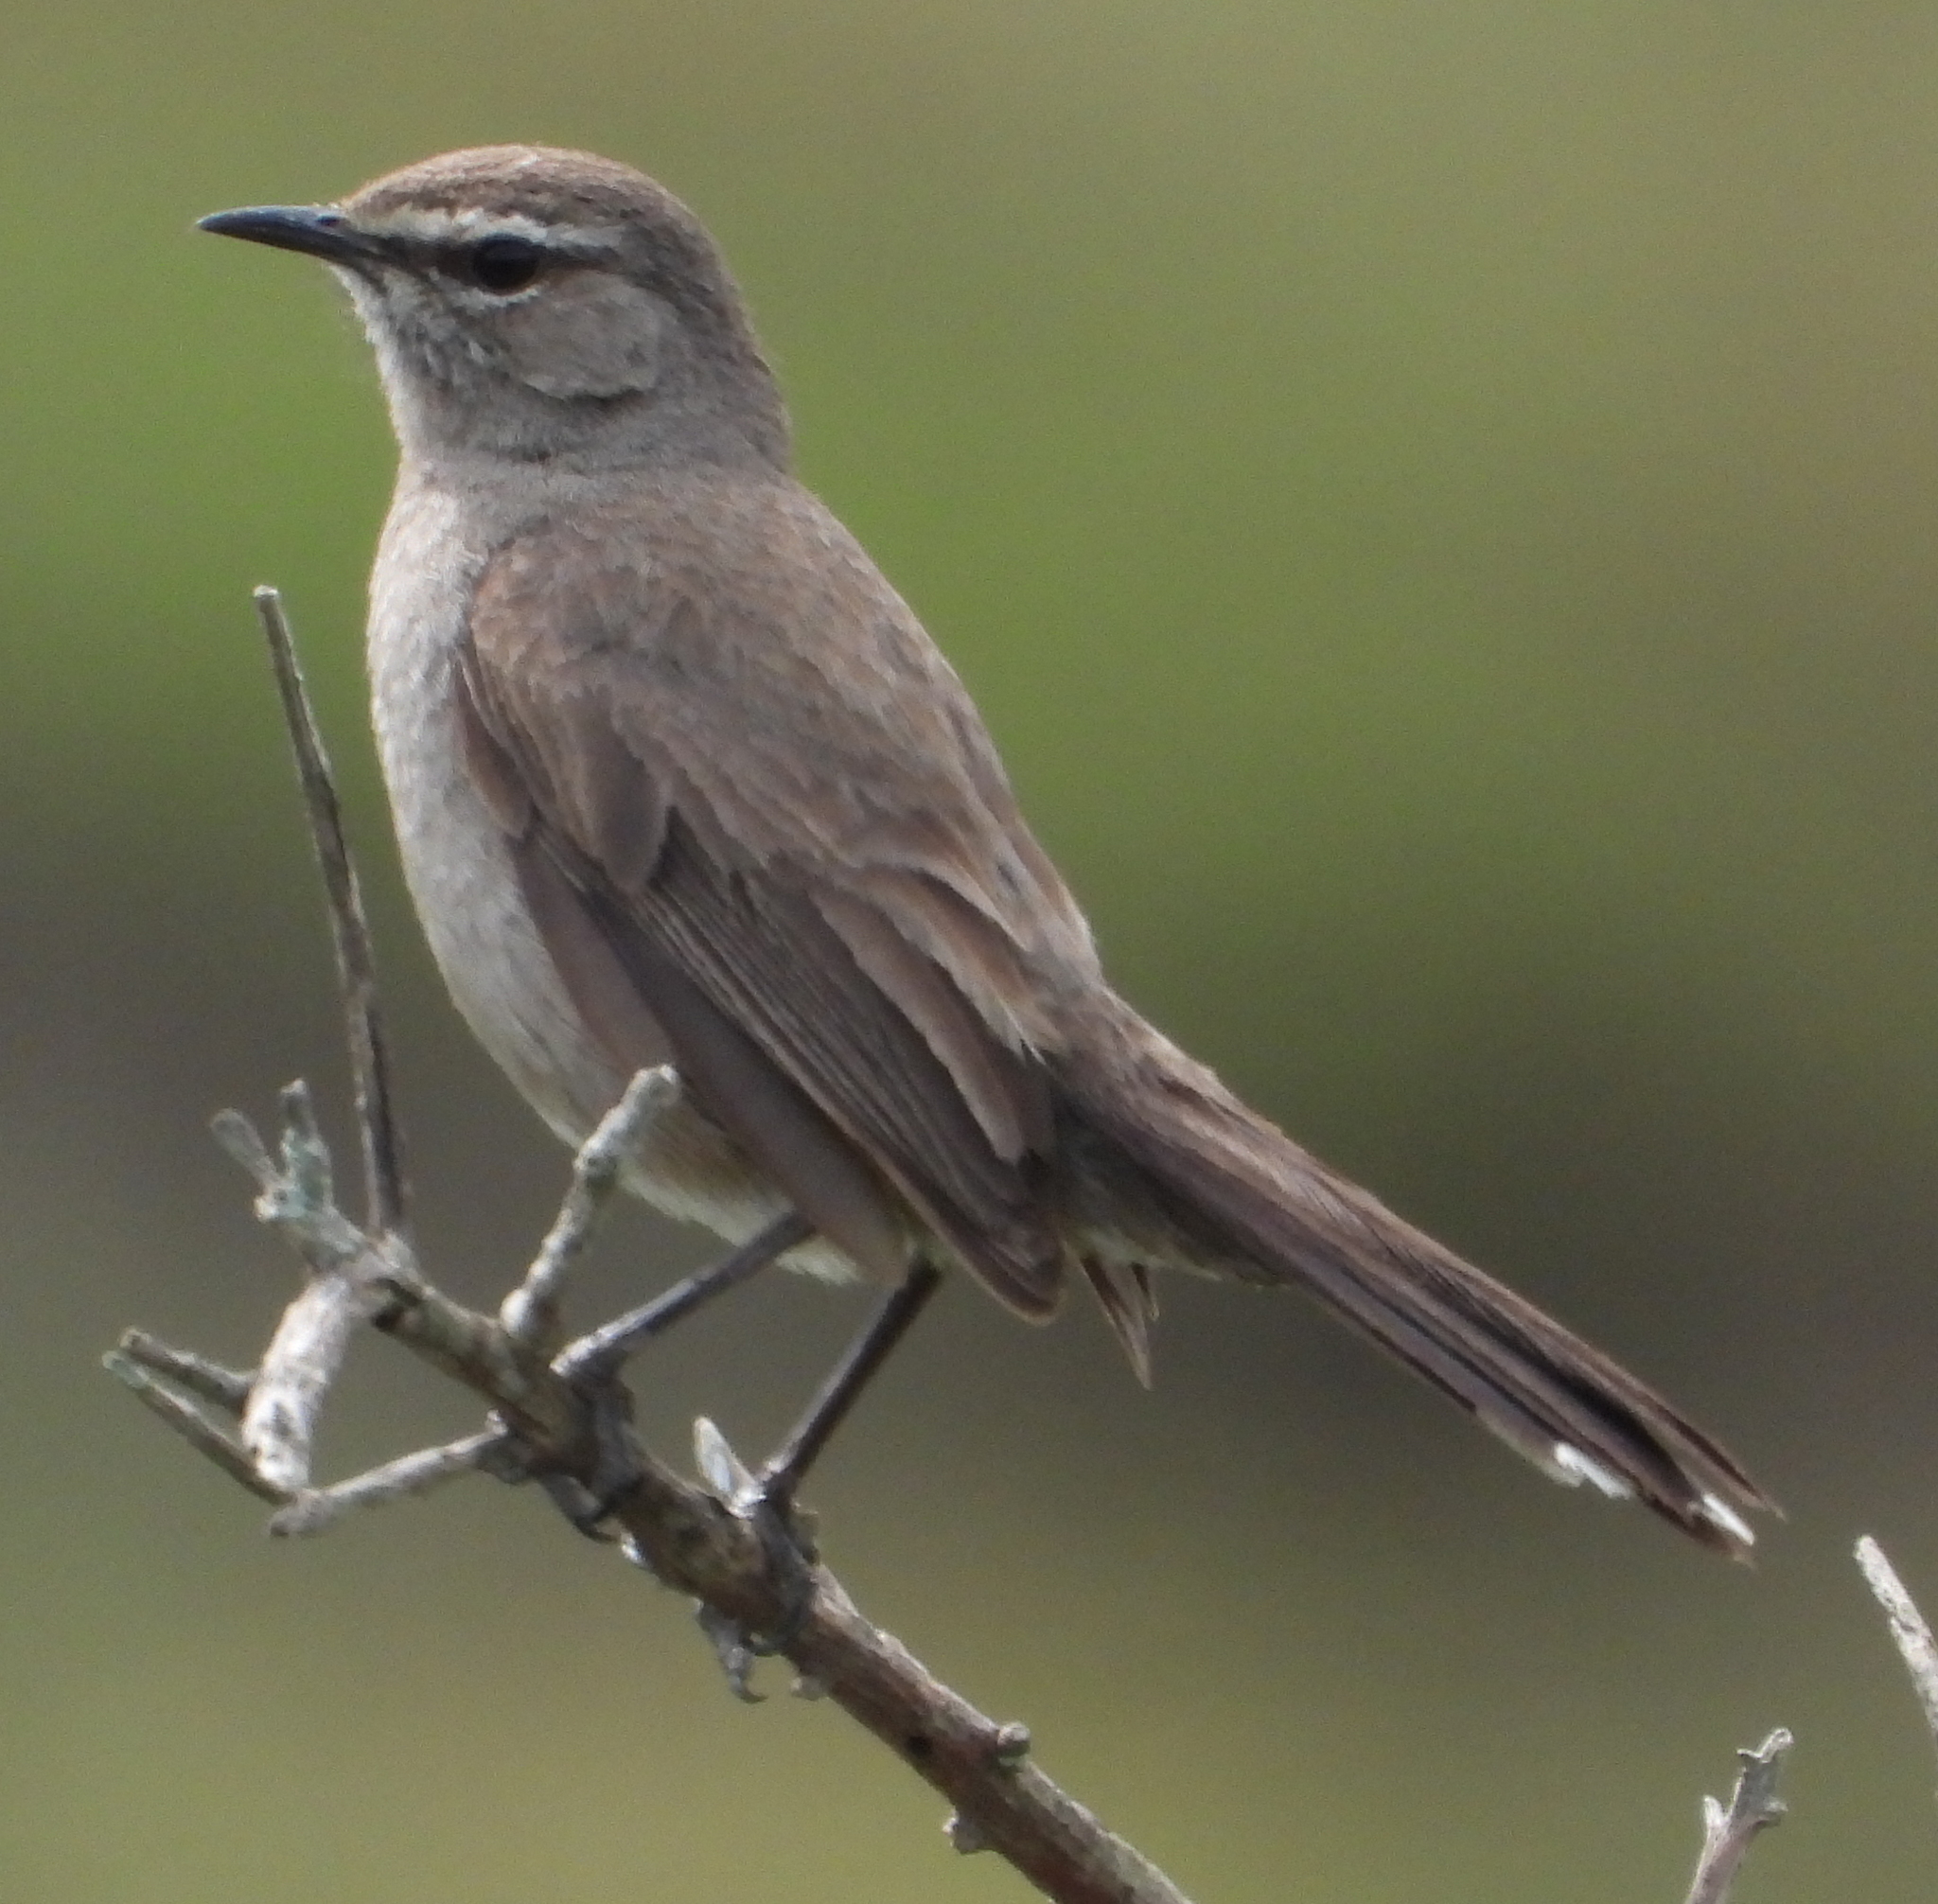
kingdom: Animalia
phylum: Chordata
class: Aves
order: Passeriformes
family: Muscicapidae
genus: Erythropygia
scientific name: Erythropygia coryphoeus
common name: Karoo scrub robin
